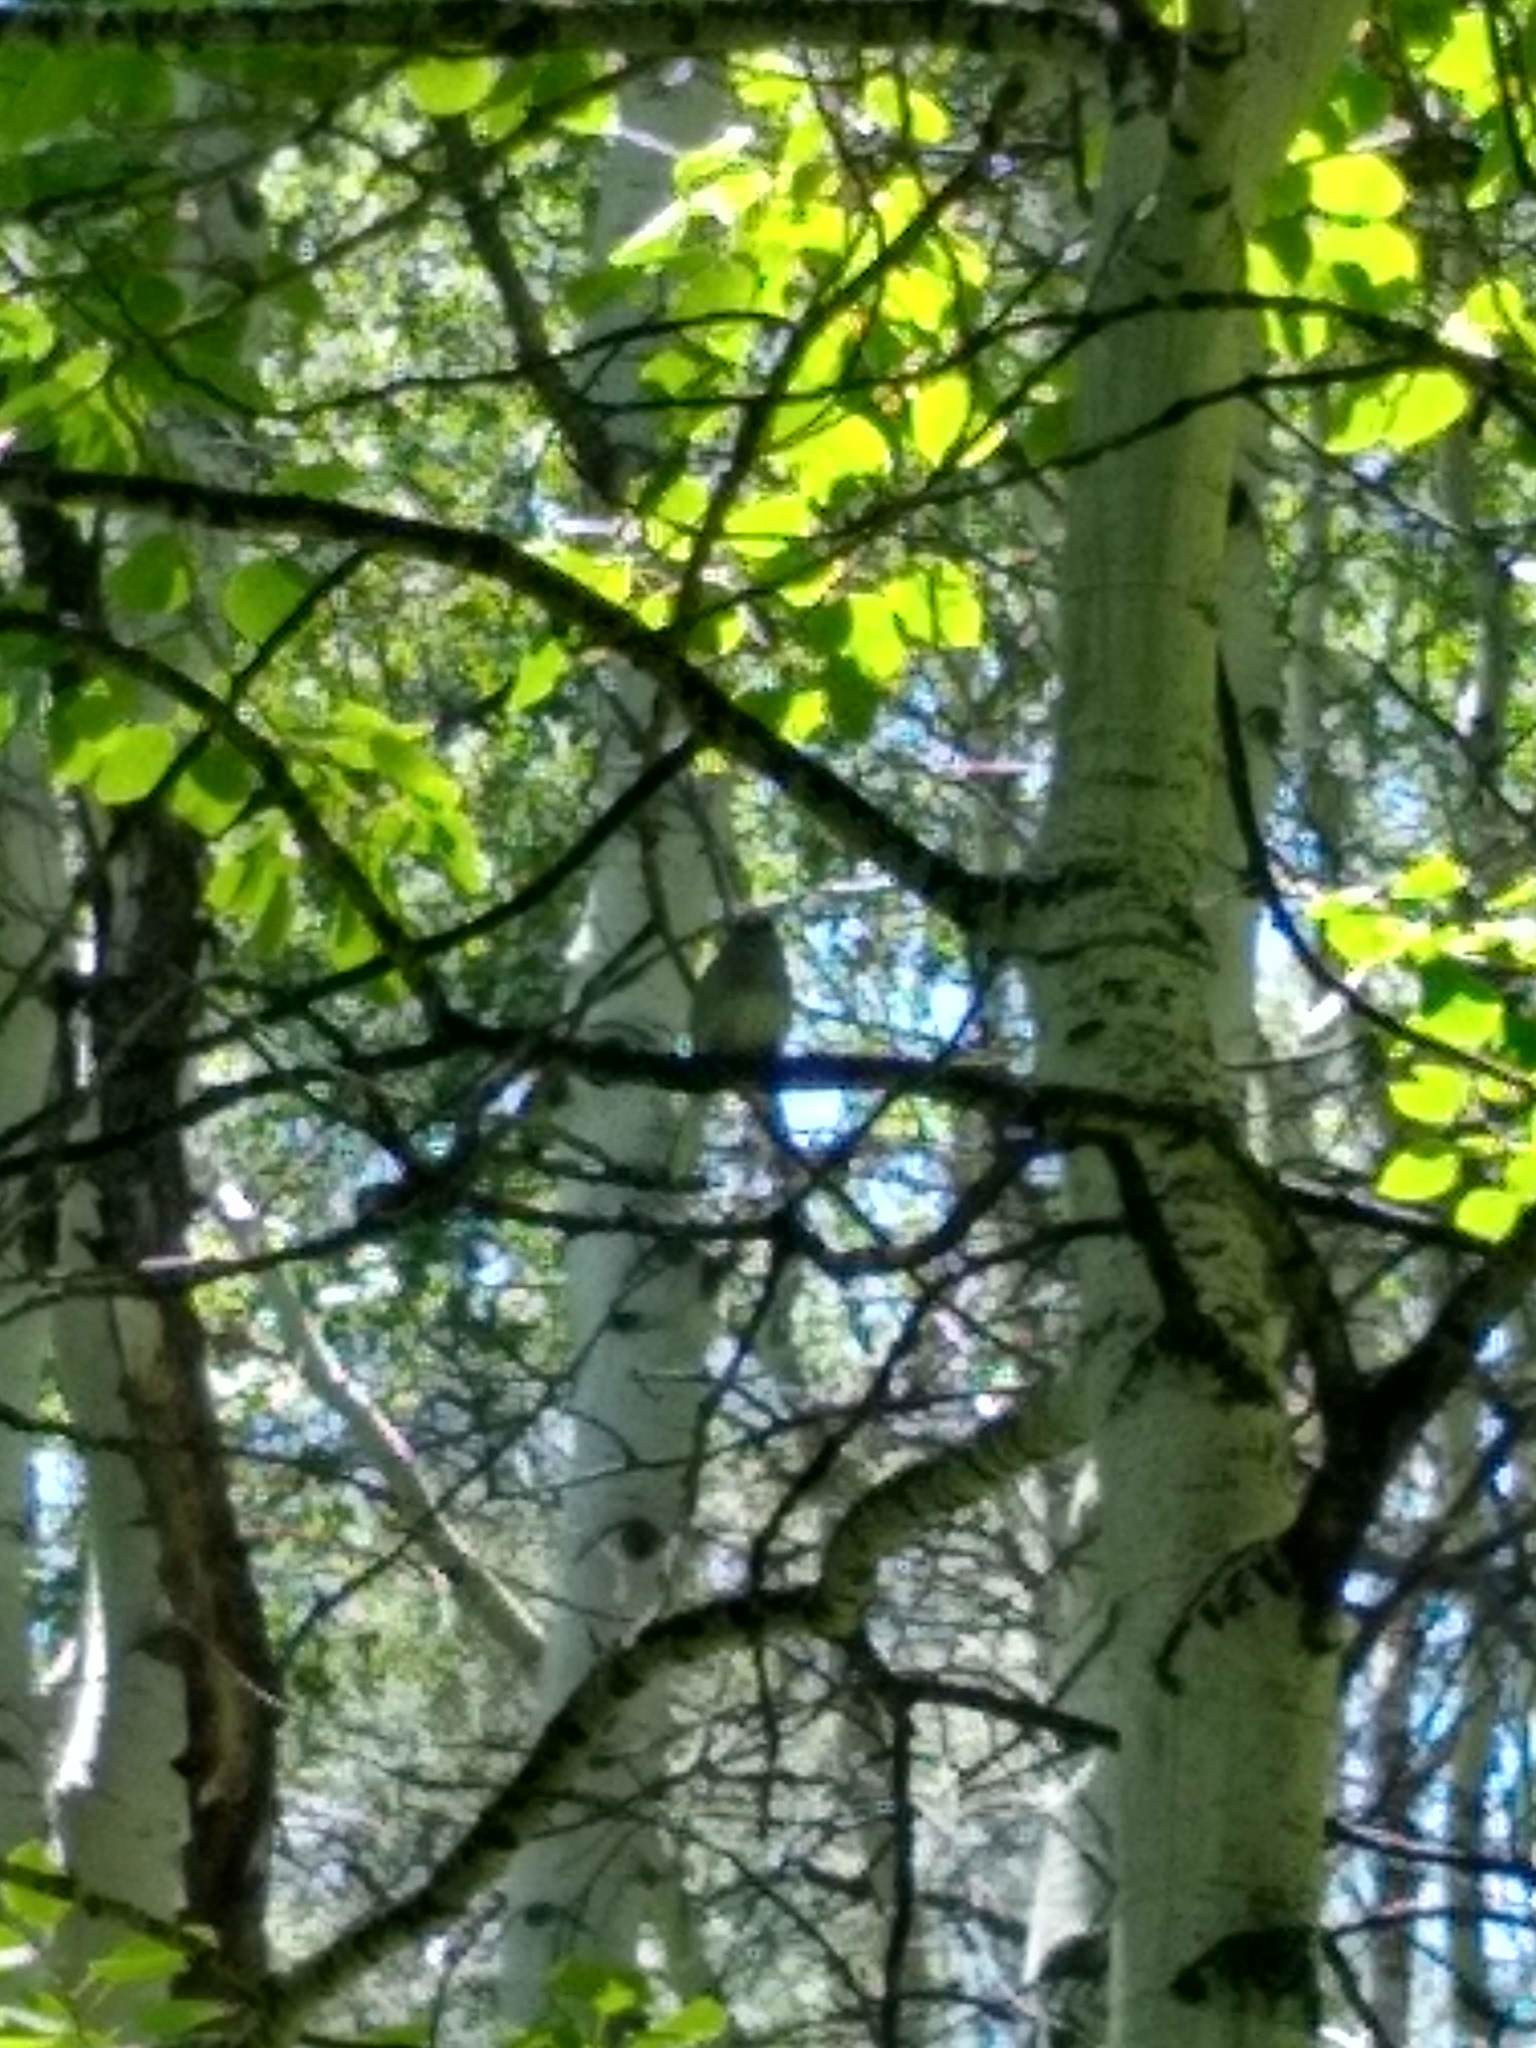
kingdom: Animalia
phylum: Chordata
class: Aves
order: Passeriformes
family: Passerellidae
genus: Junco
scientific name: Junco hyemalis
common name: Dark-eyed junco
